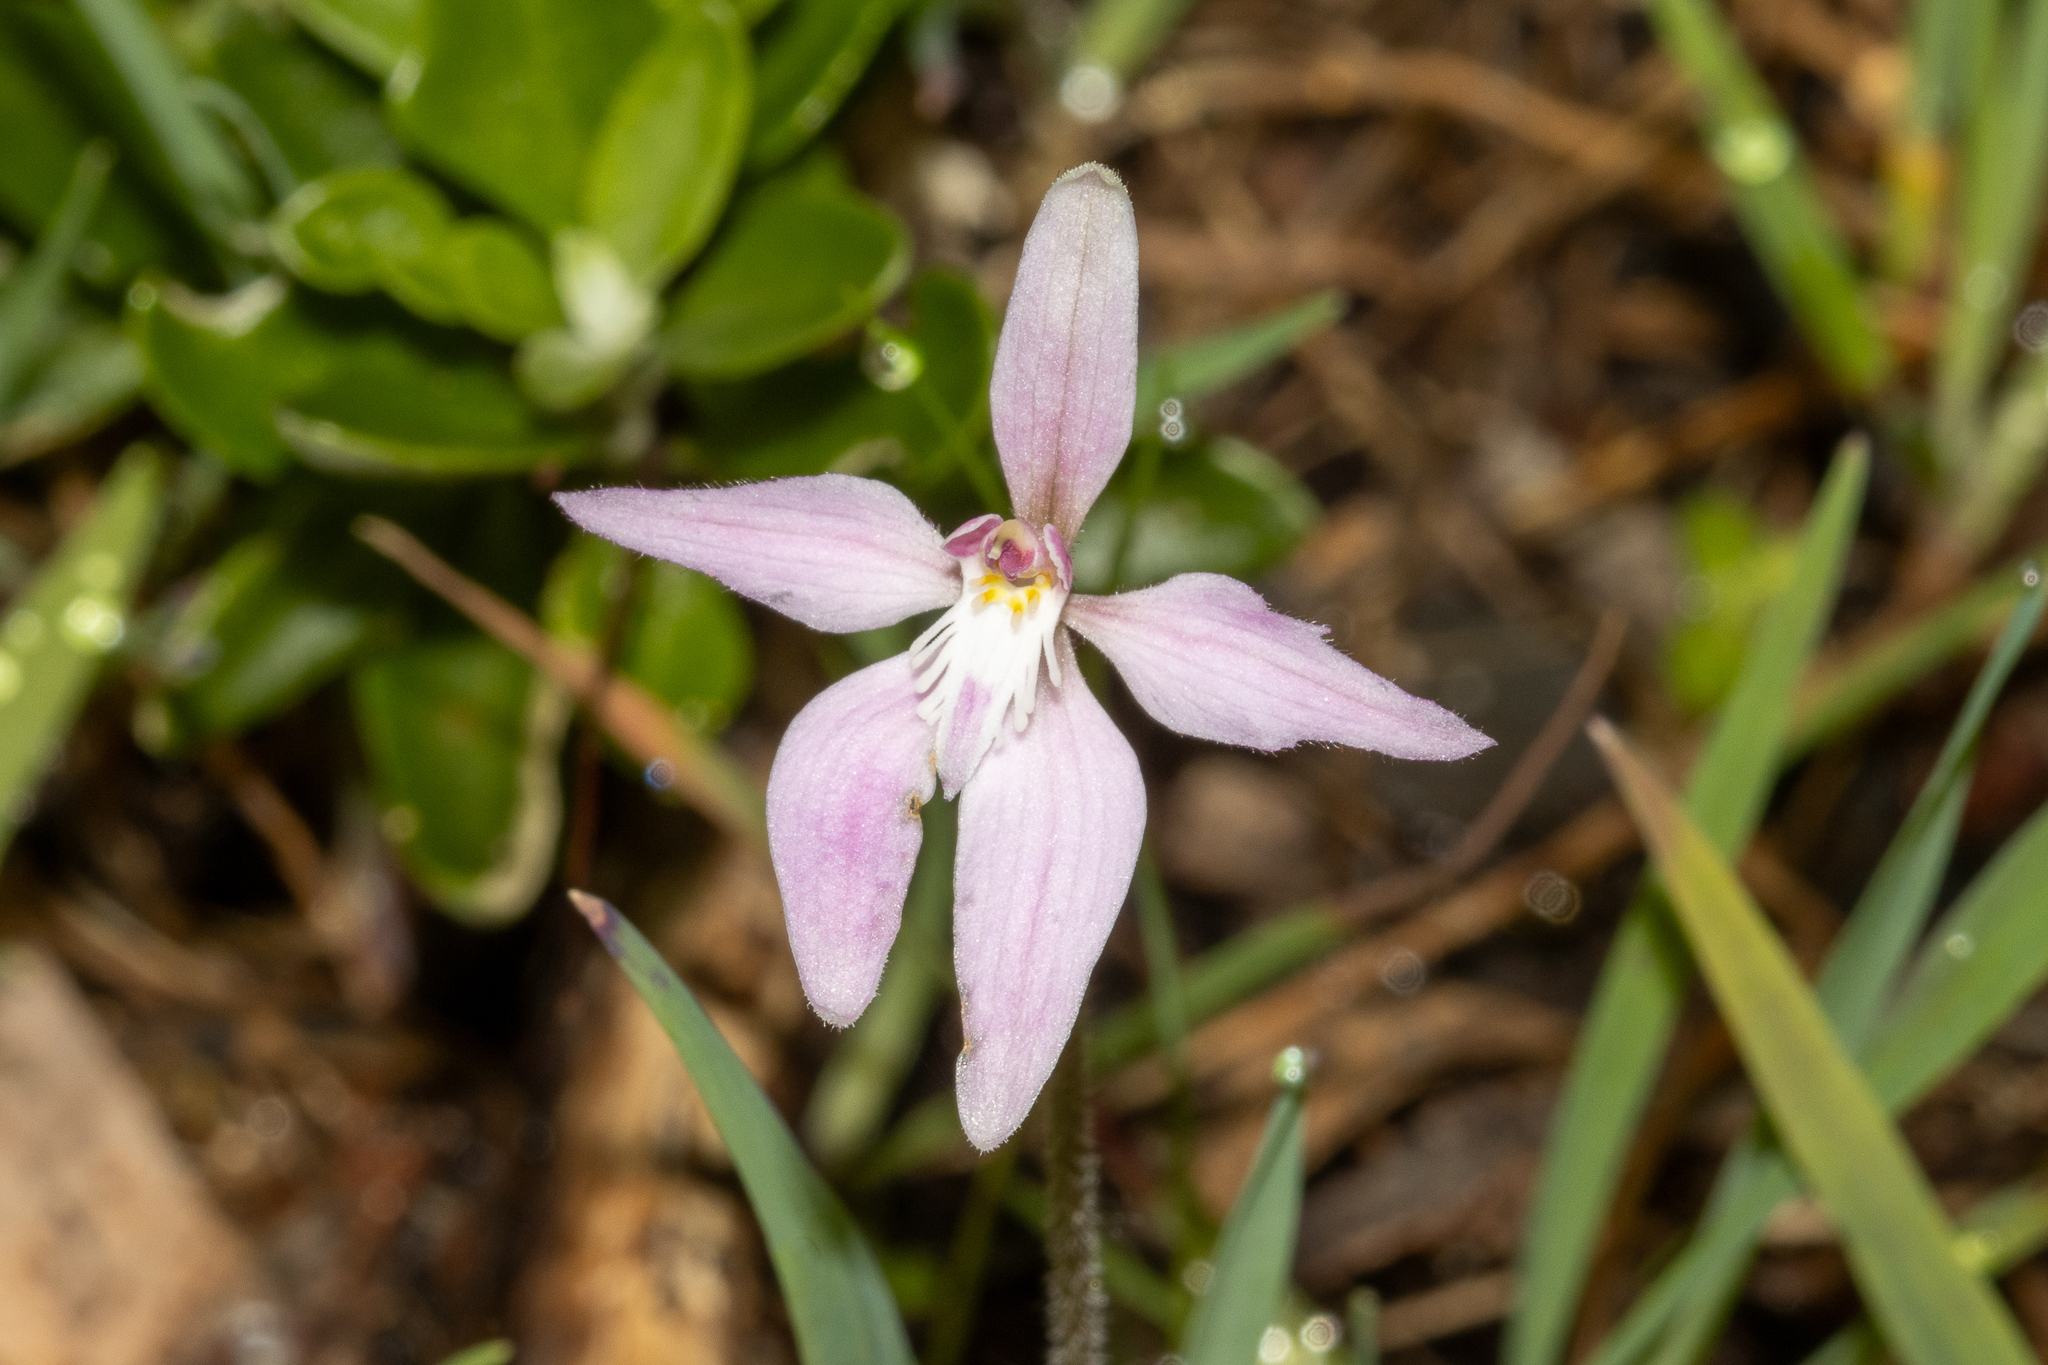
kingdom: Plantae
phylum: Tracheophyta
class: Liliopsida
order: Asparagales
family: Orchidaceae
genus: Caladenia
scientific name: Caladenia latifolia
